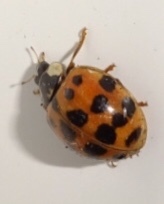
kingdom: Animalia
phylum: Arthropoda
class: Insecta
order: Coleoptera
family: Coccinellidae
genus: Harmonia
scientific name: Harmonia axyridis
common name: Harlequin ladybird
